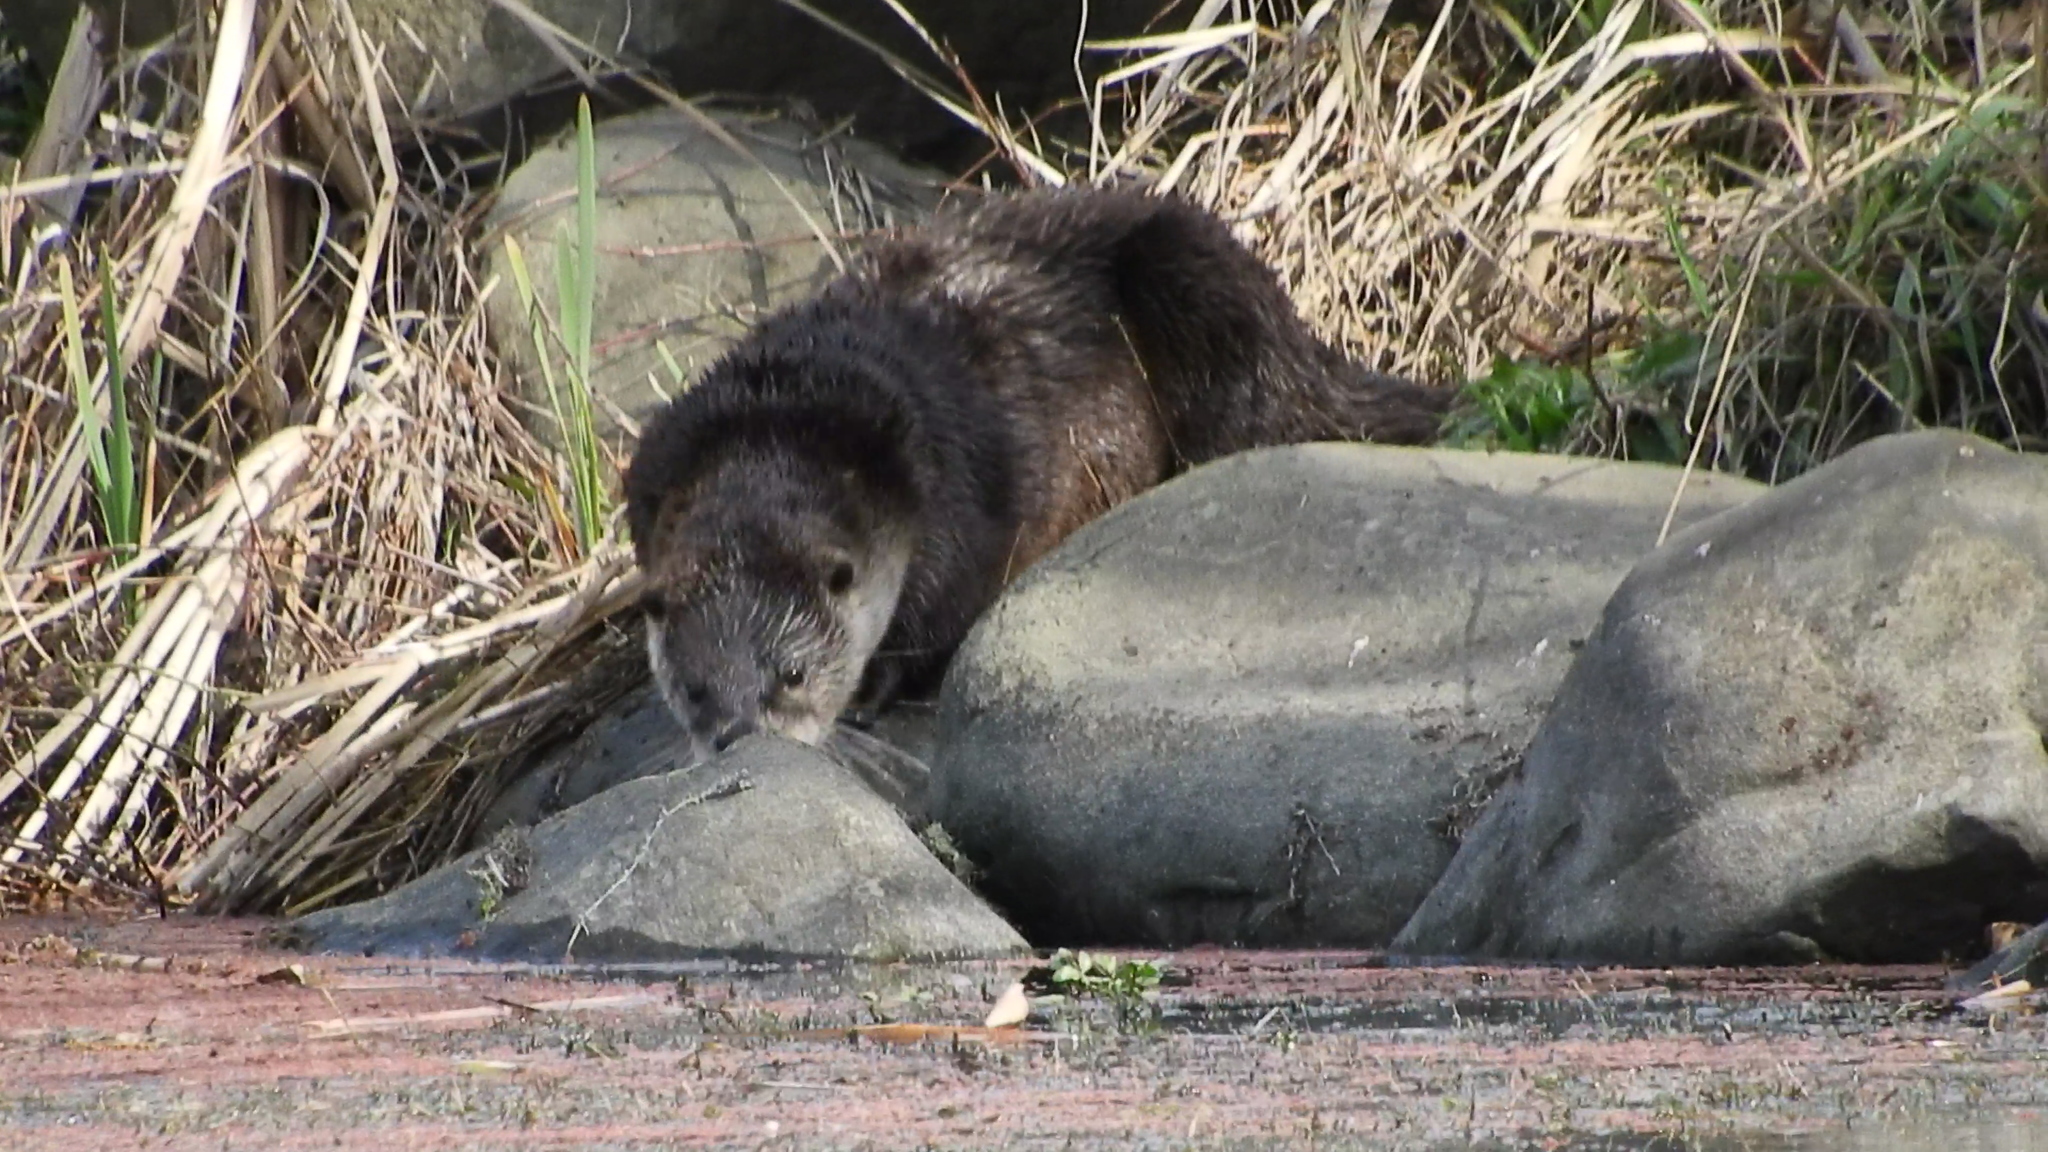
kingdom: Animalia
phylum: Chordata
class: Mammalia
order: Carnivora
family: Mustelidae
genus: Lontra
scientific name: Lontra canadensis
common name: North american river otter
